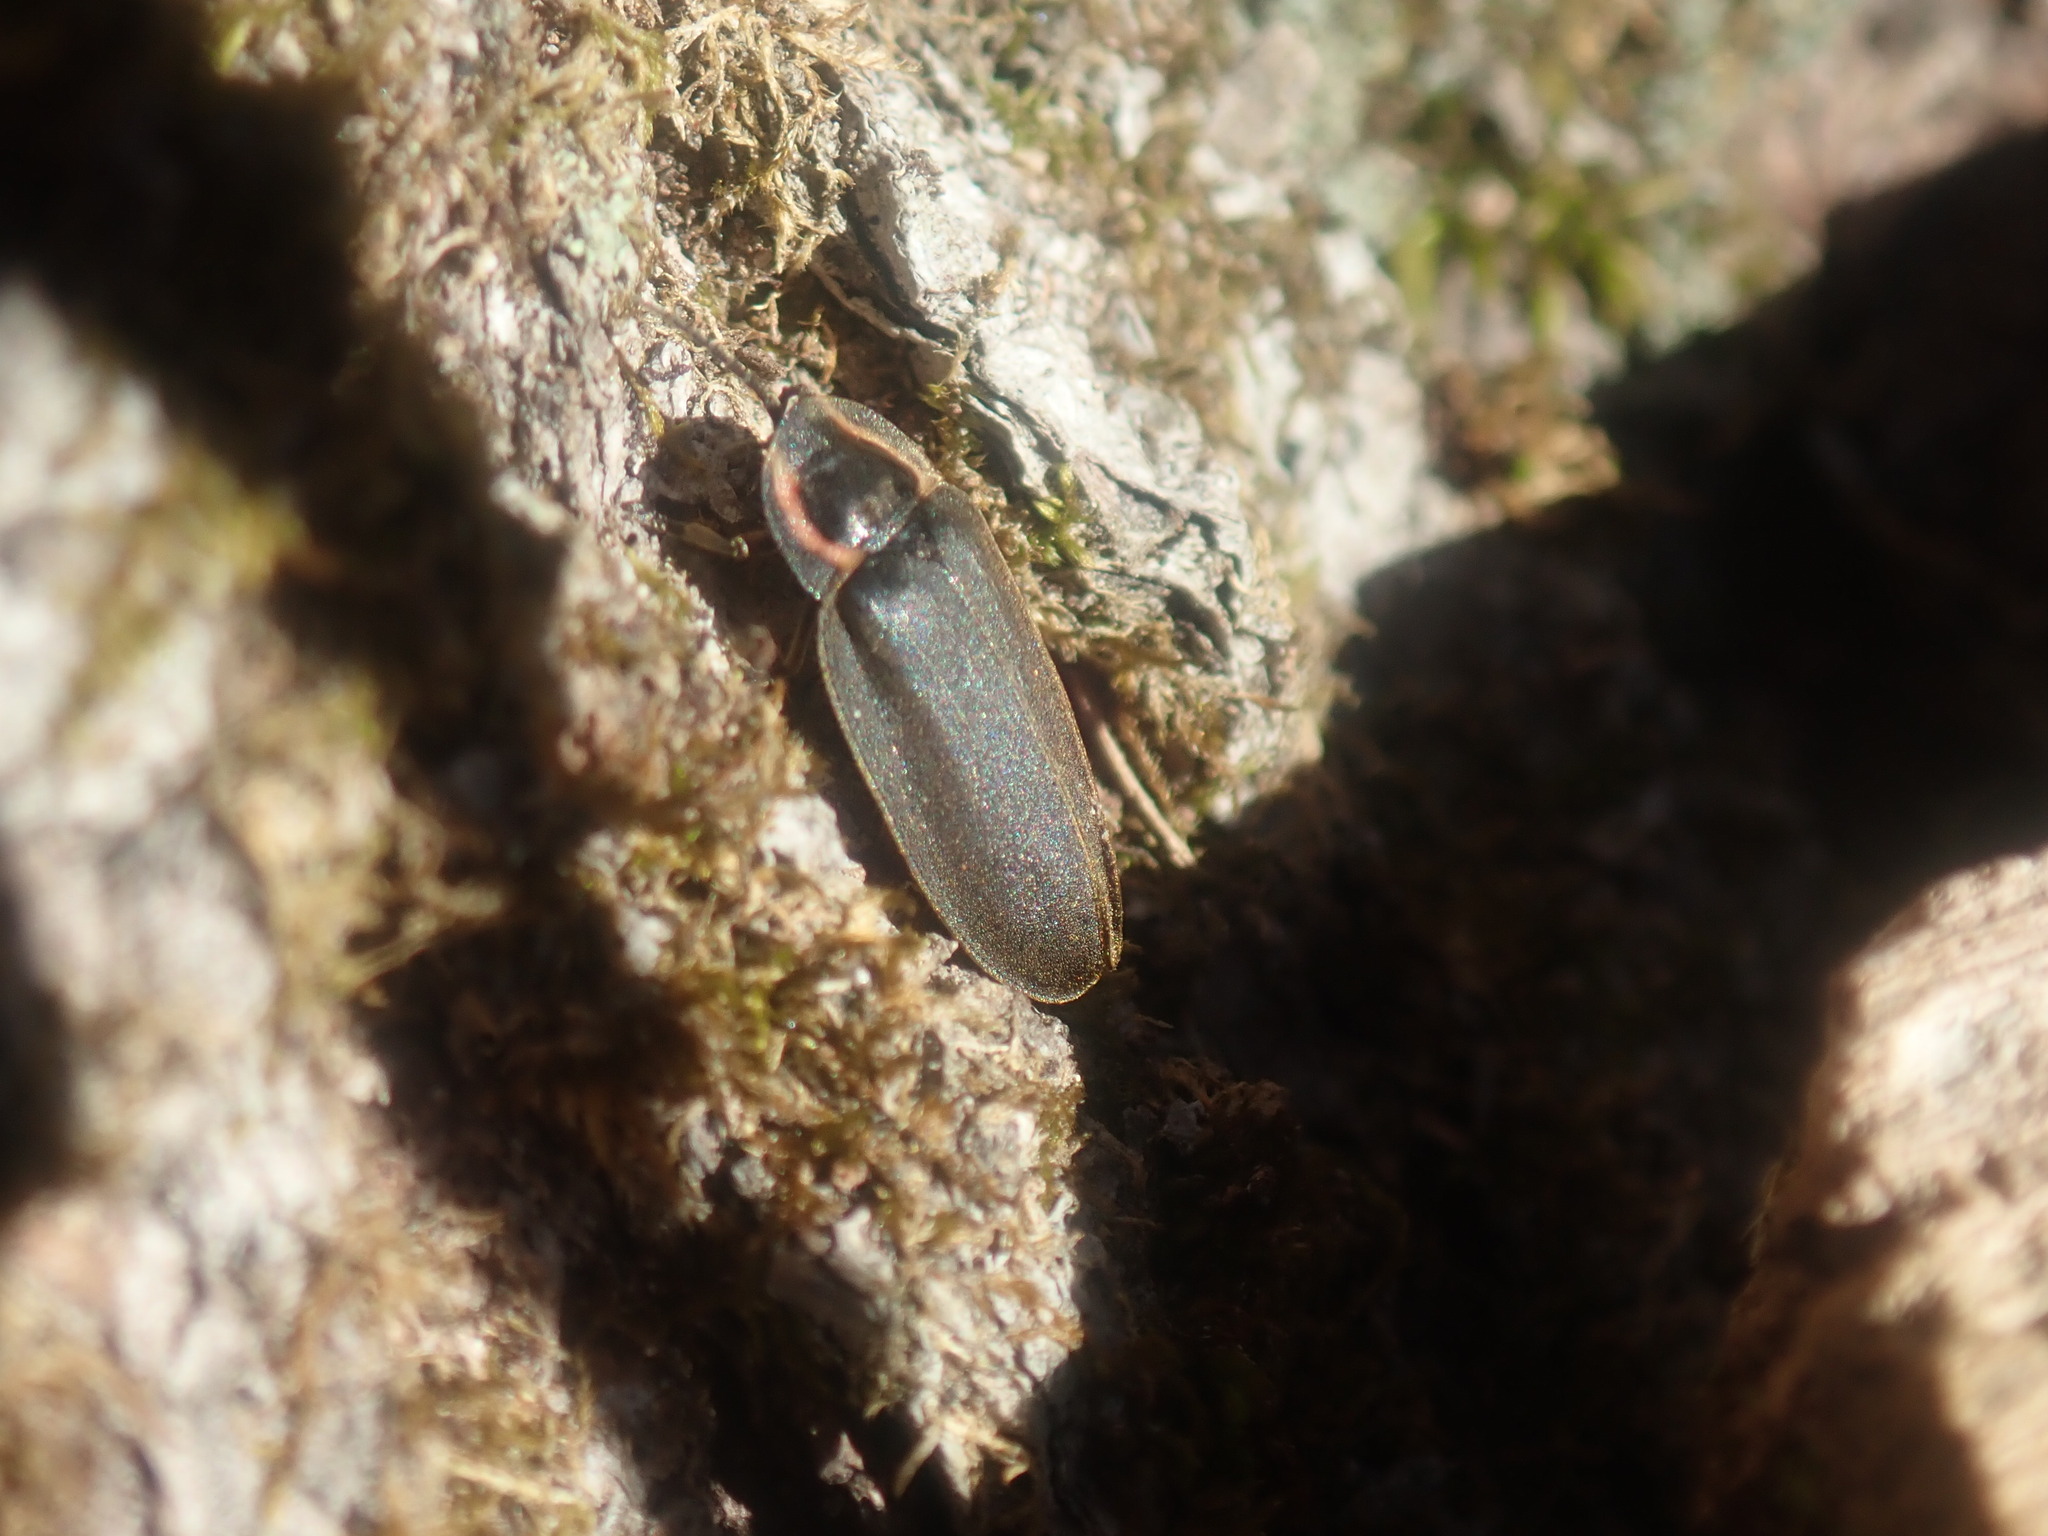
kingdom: Animalia
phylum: Arthropoda
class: Insecta
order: Coleoptera
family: Lampyridae
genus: Photinus
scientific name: Photinus corrusca
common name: Winter firefly
